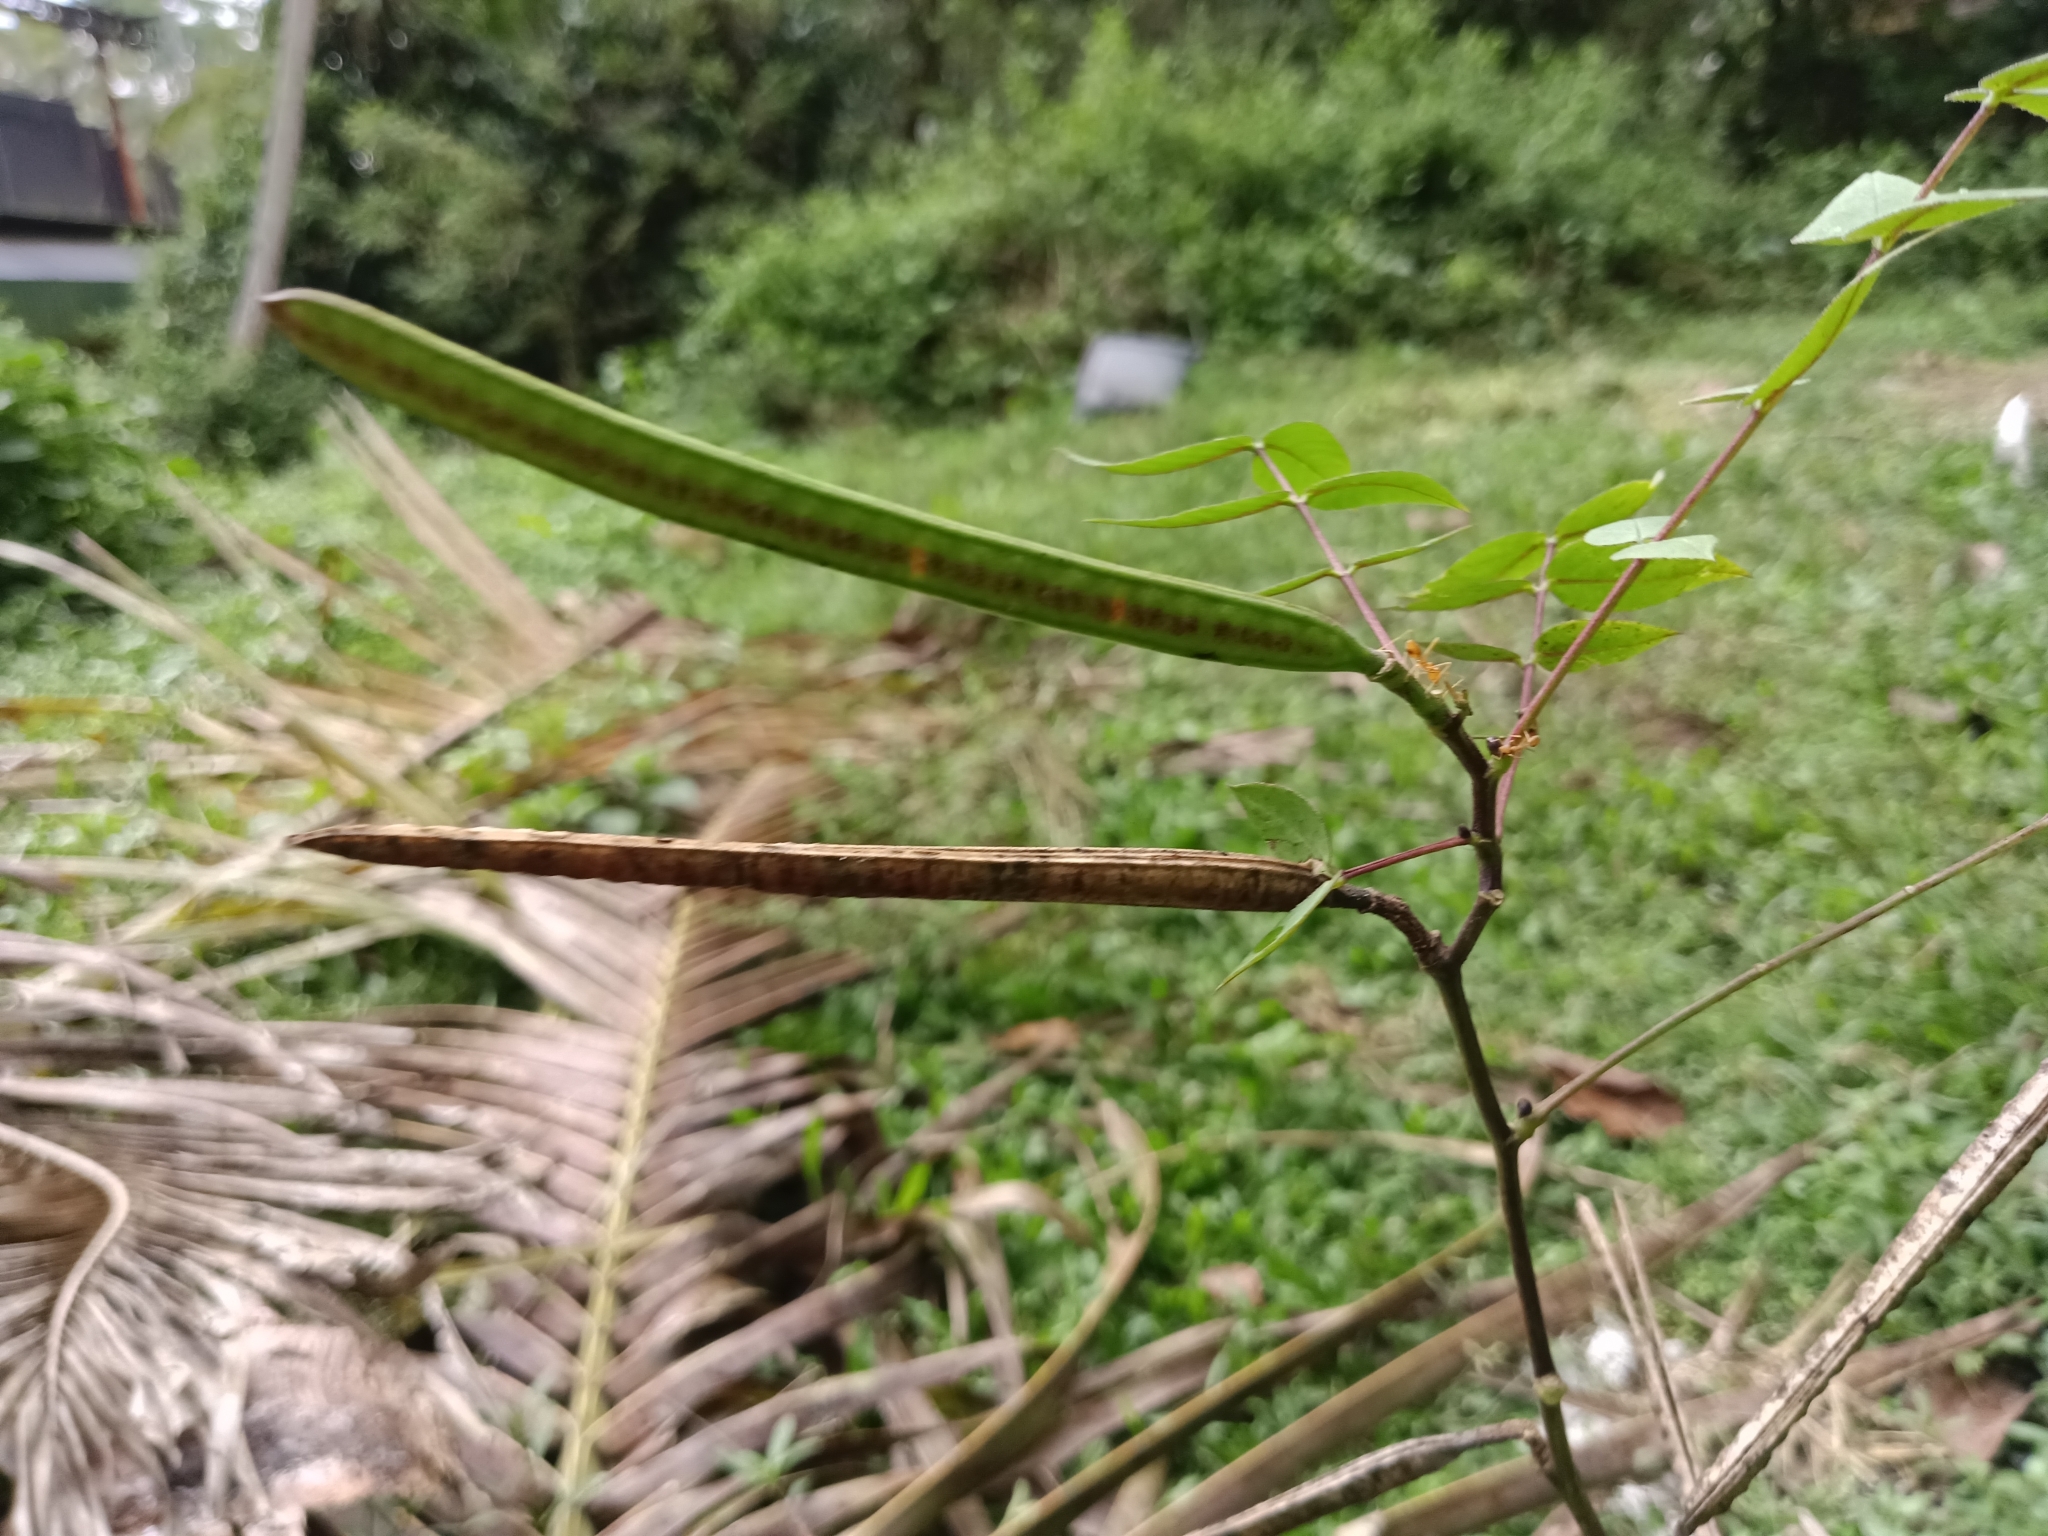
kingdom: Plantae
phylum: Tracheophyta
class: Magnoliopsida
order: Fabales
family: Fabaceae
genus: Senna
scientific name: Senna occidentalis
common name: Septicweed
